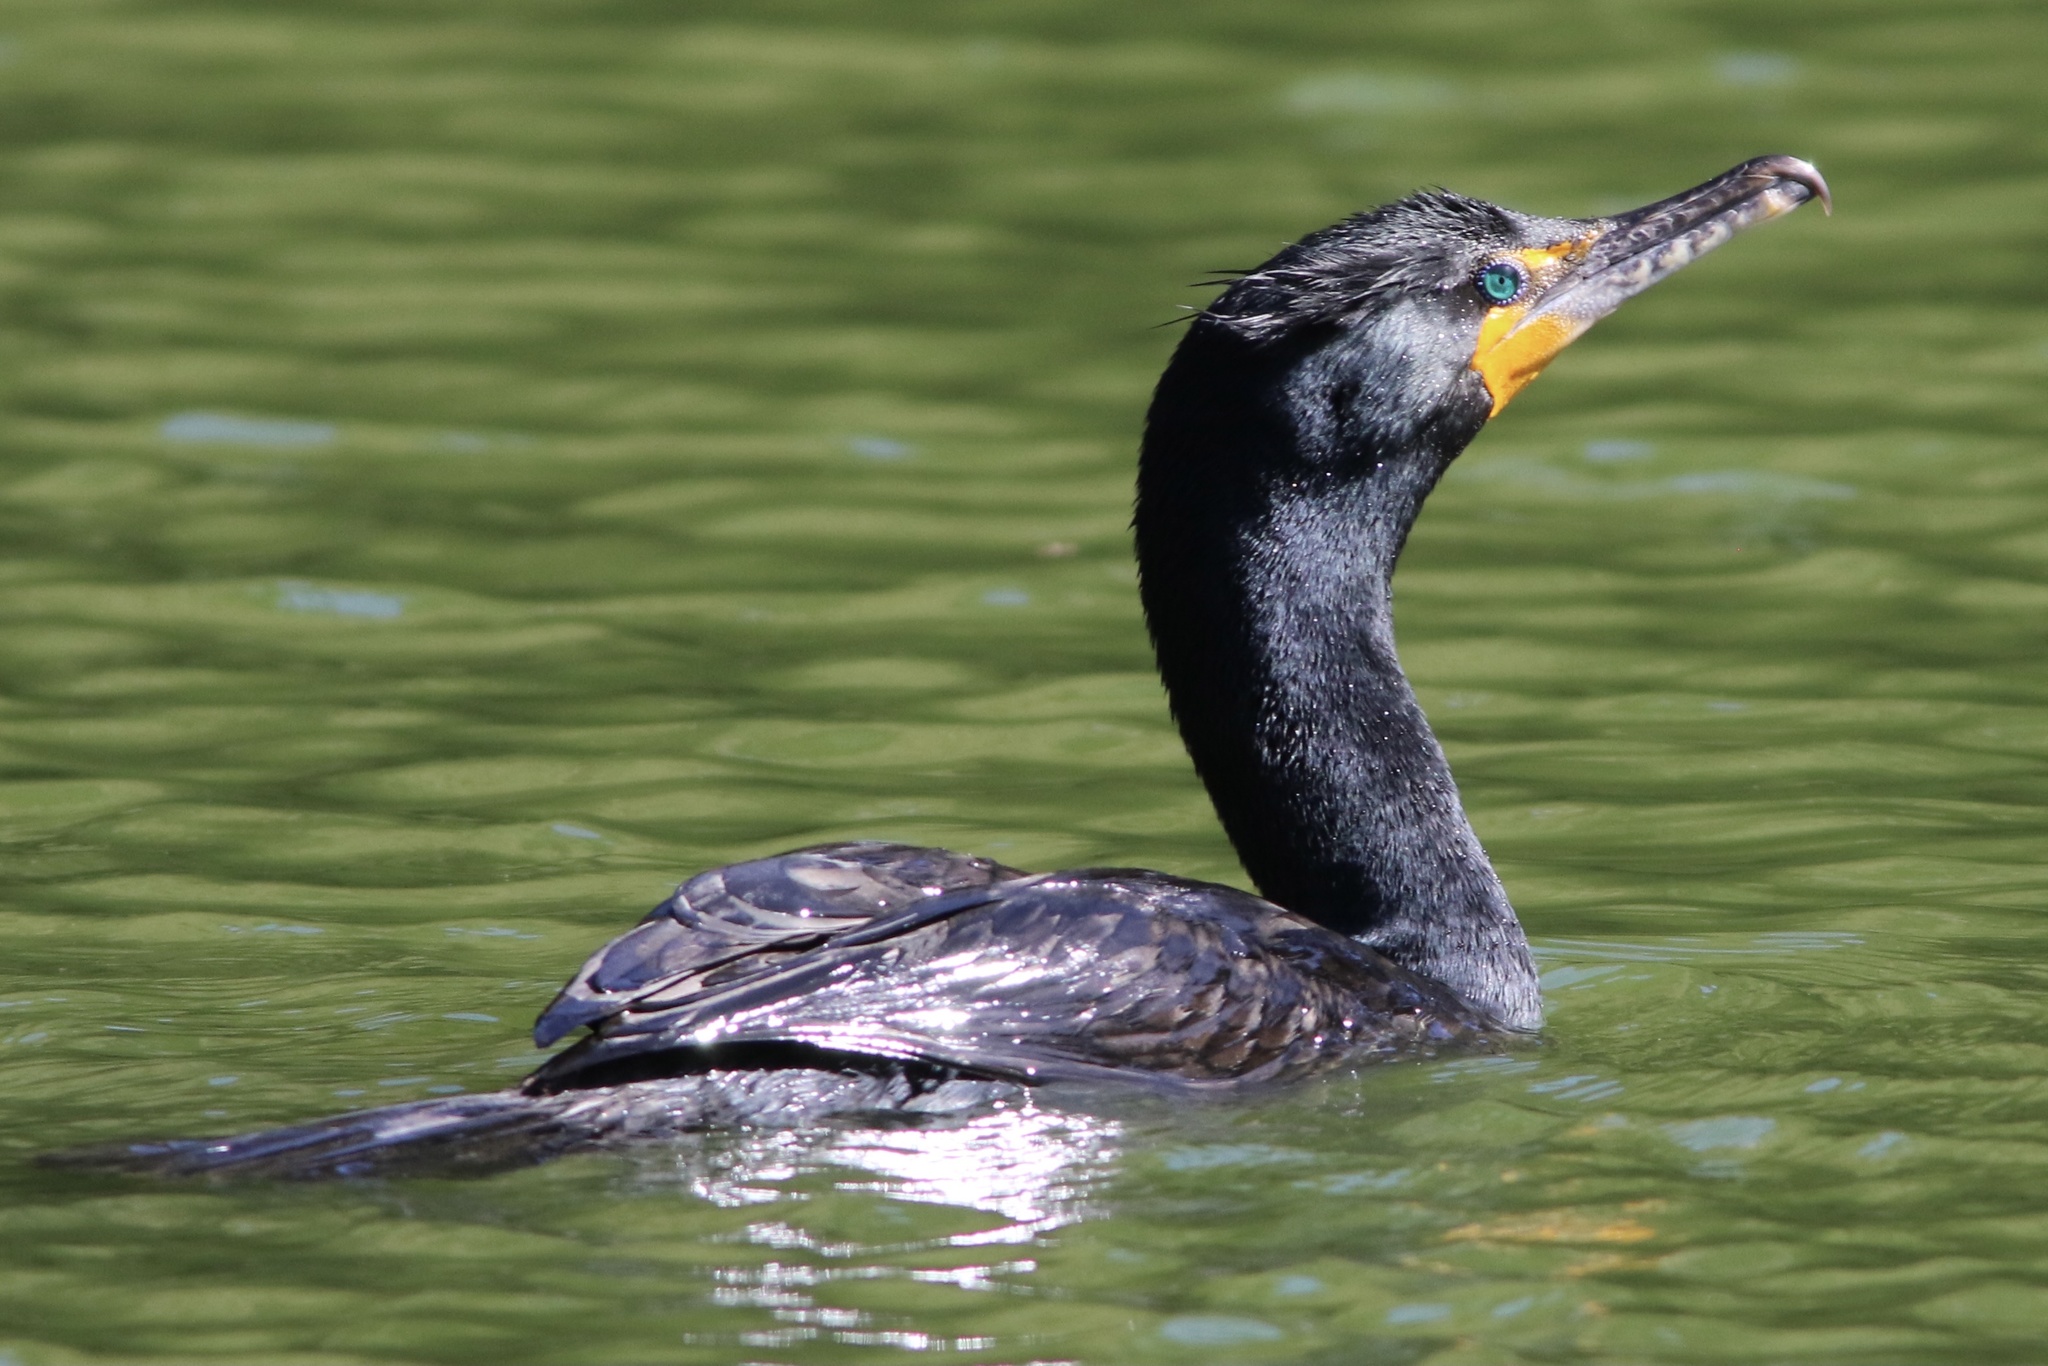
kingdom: Animalia
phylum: Chordata
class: Aves
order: Suliformes
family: Phalacrocoracidae
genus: Phalacrocorax
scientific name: Phalacrocorax auritus
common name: Double-crested cormorant
